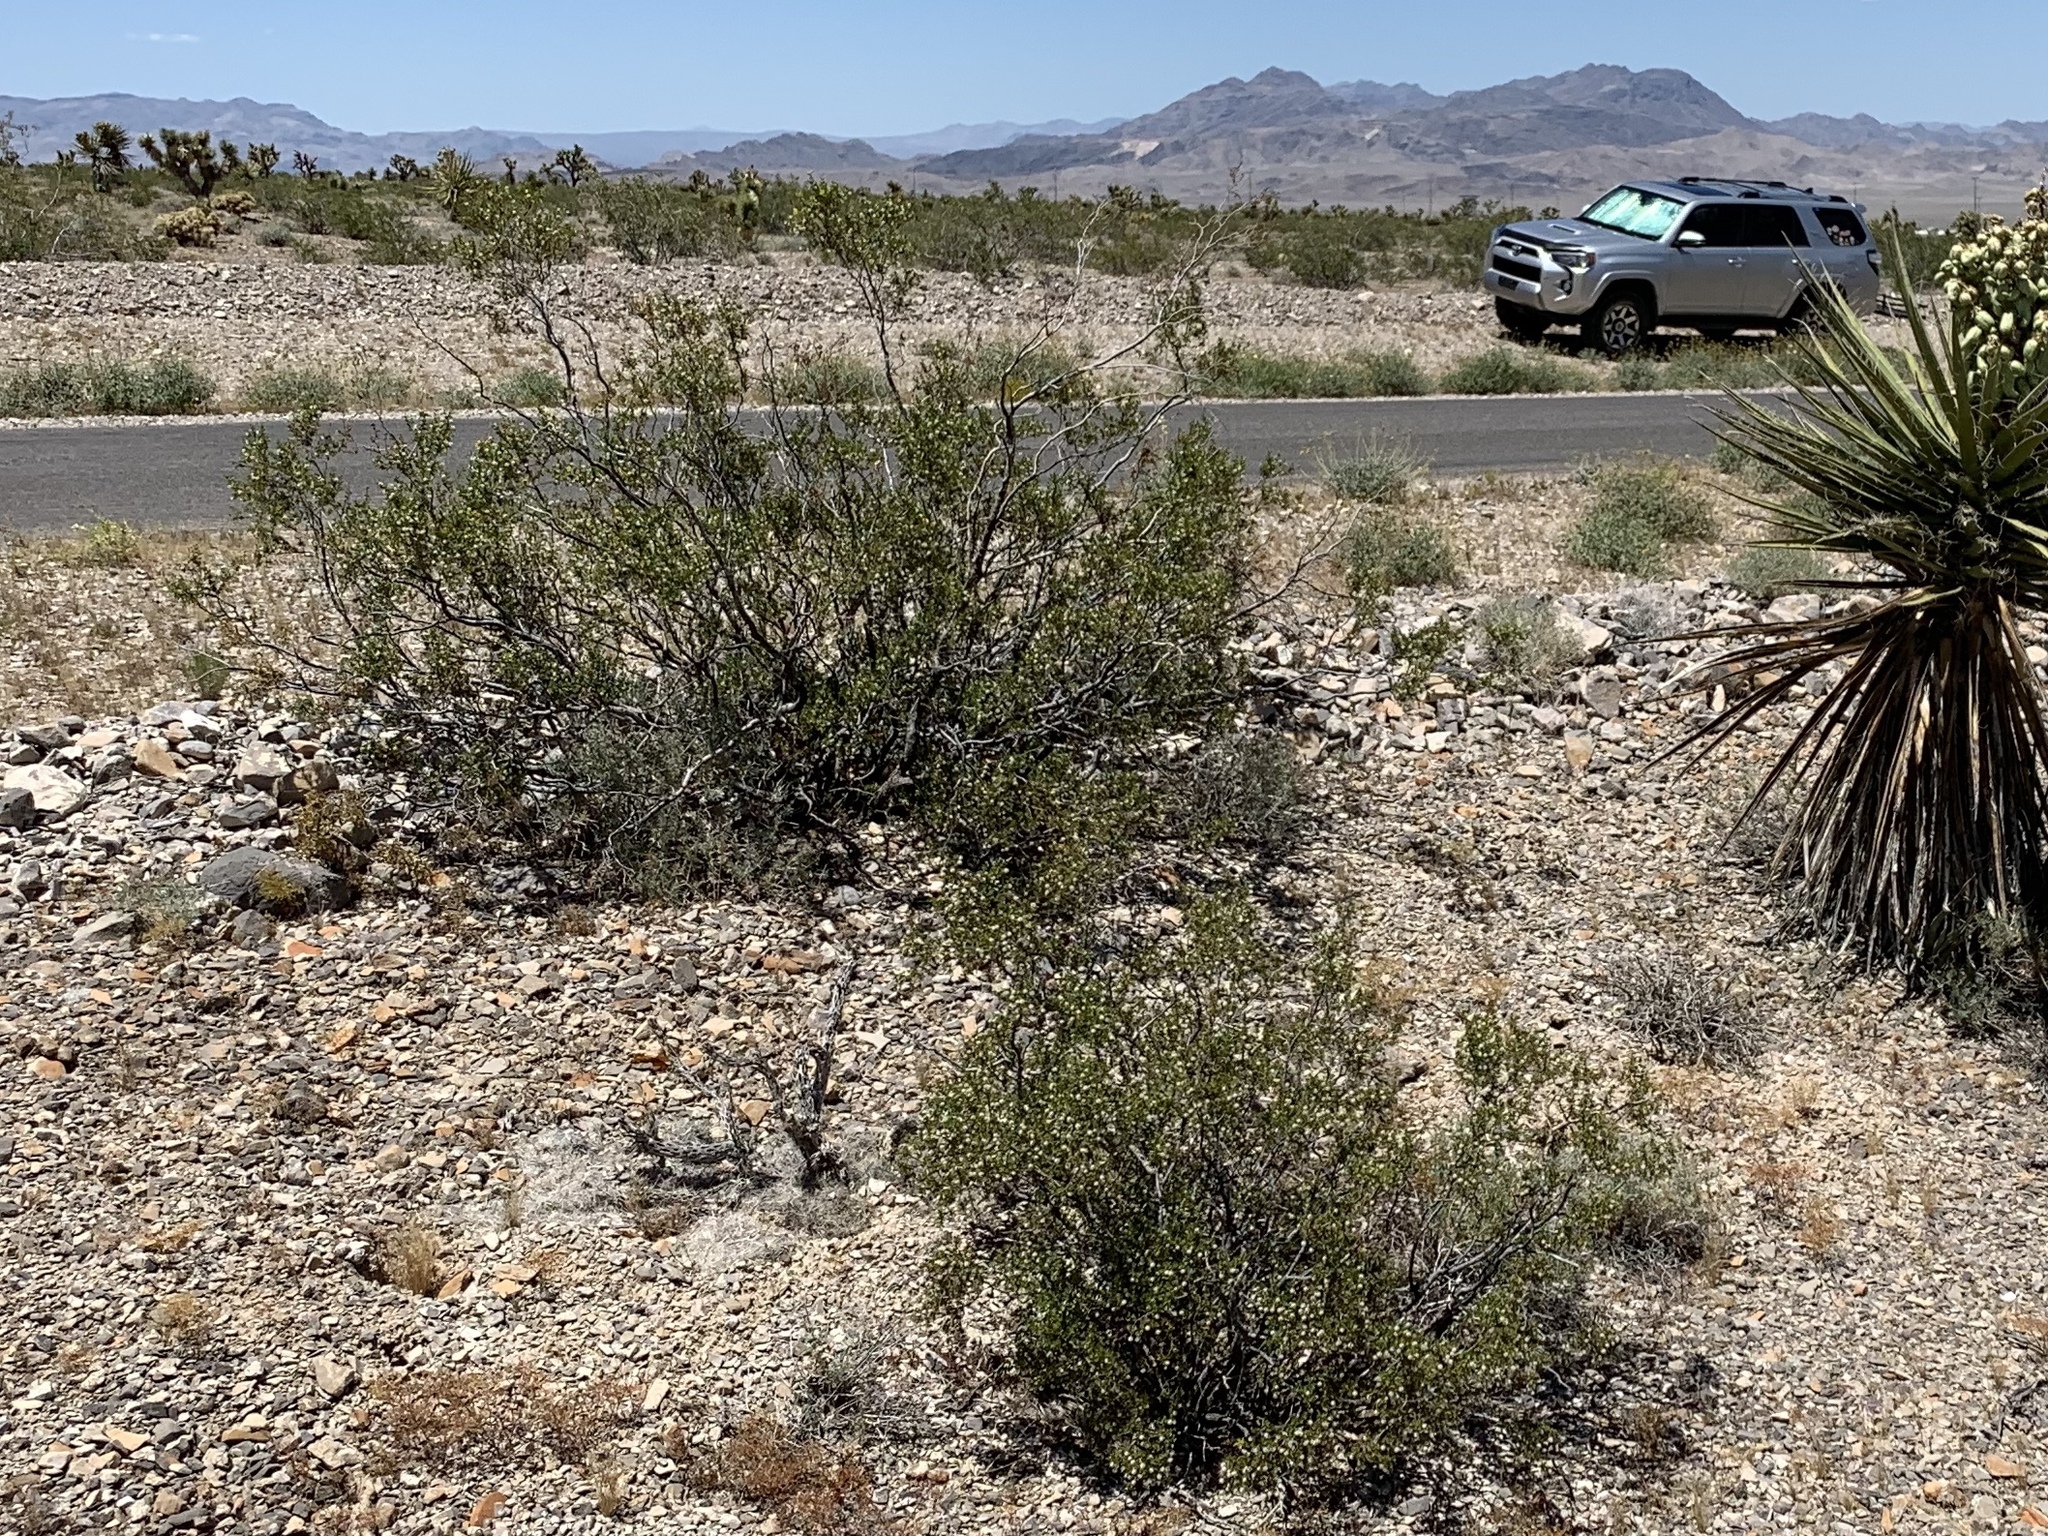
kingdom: Plantae
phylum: Tracheophyta
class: Magnoliopsida
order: Zygophyllales
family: Zygophyllaceae
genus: Larrea
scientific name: Larrea tridentata
